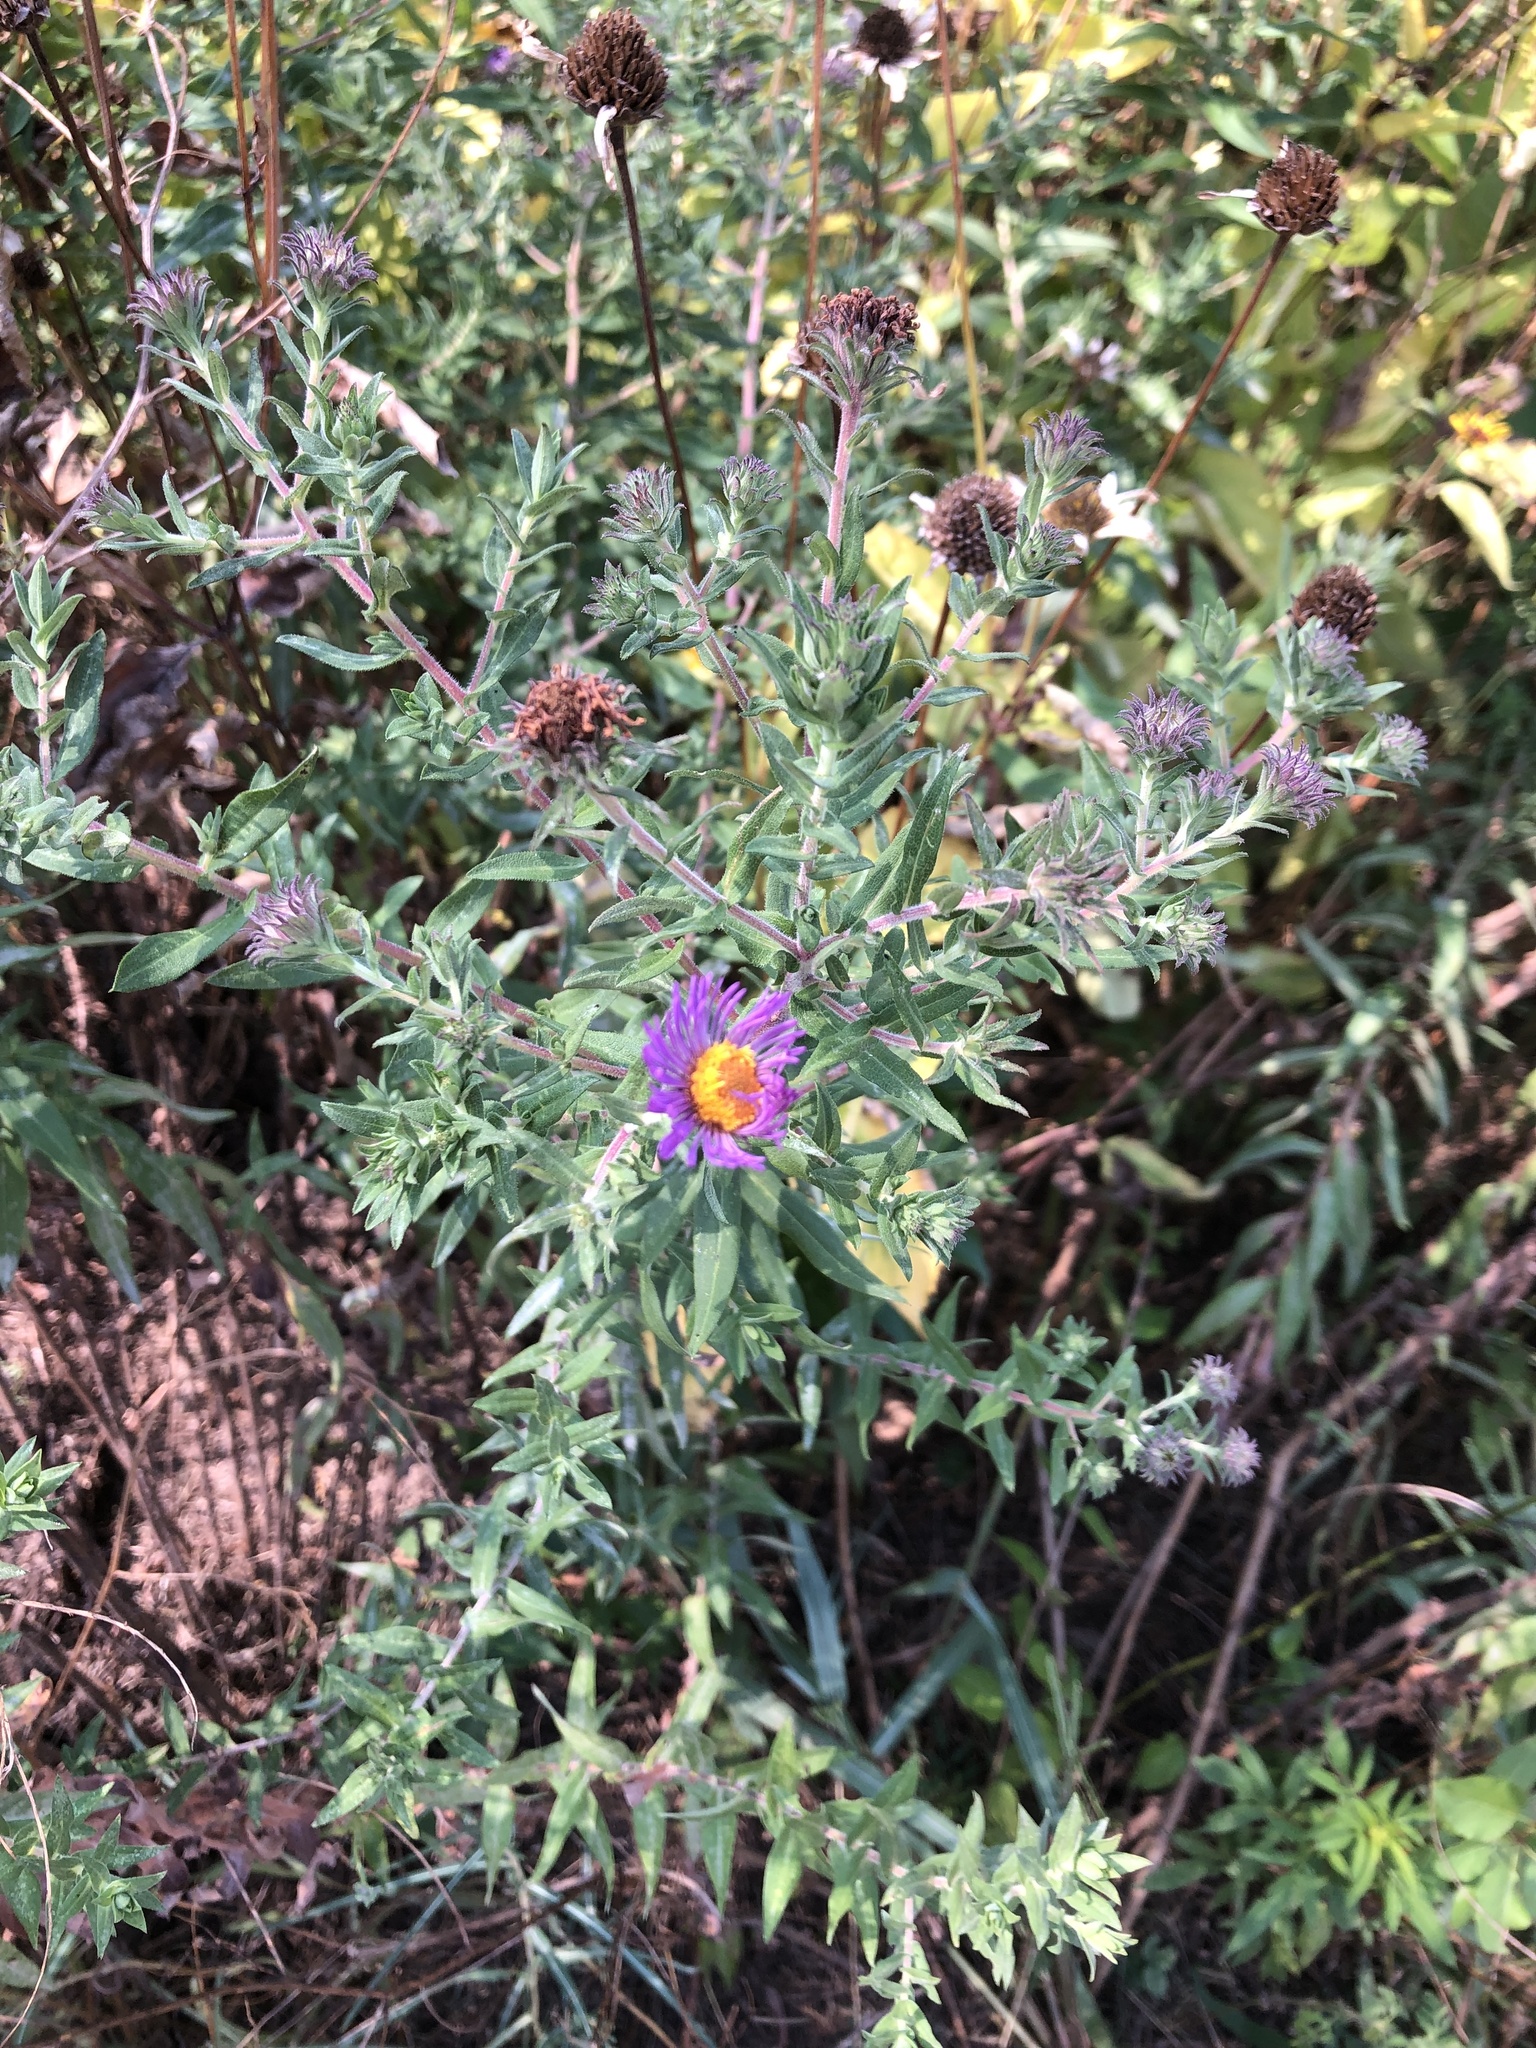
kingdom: Plantae
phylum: Tracheophyta
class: Magnoliopsida
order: Asterales
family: Asteraceae
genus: Symphyotrichum
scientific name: Symphyotrichum novae-angliae
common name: Michaelmas daisy
